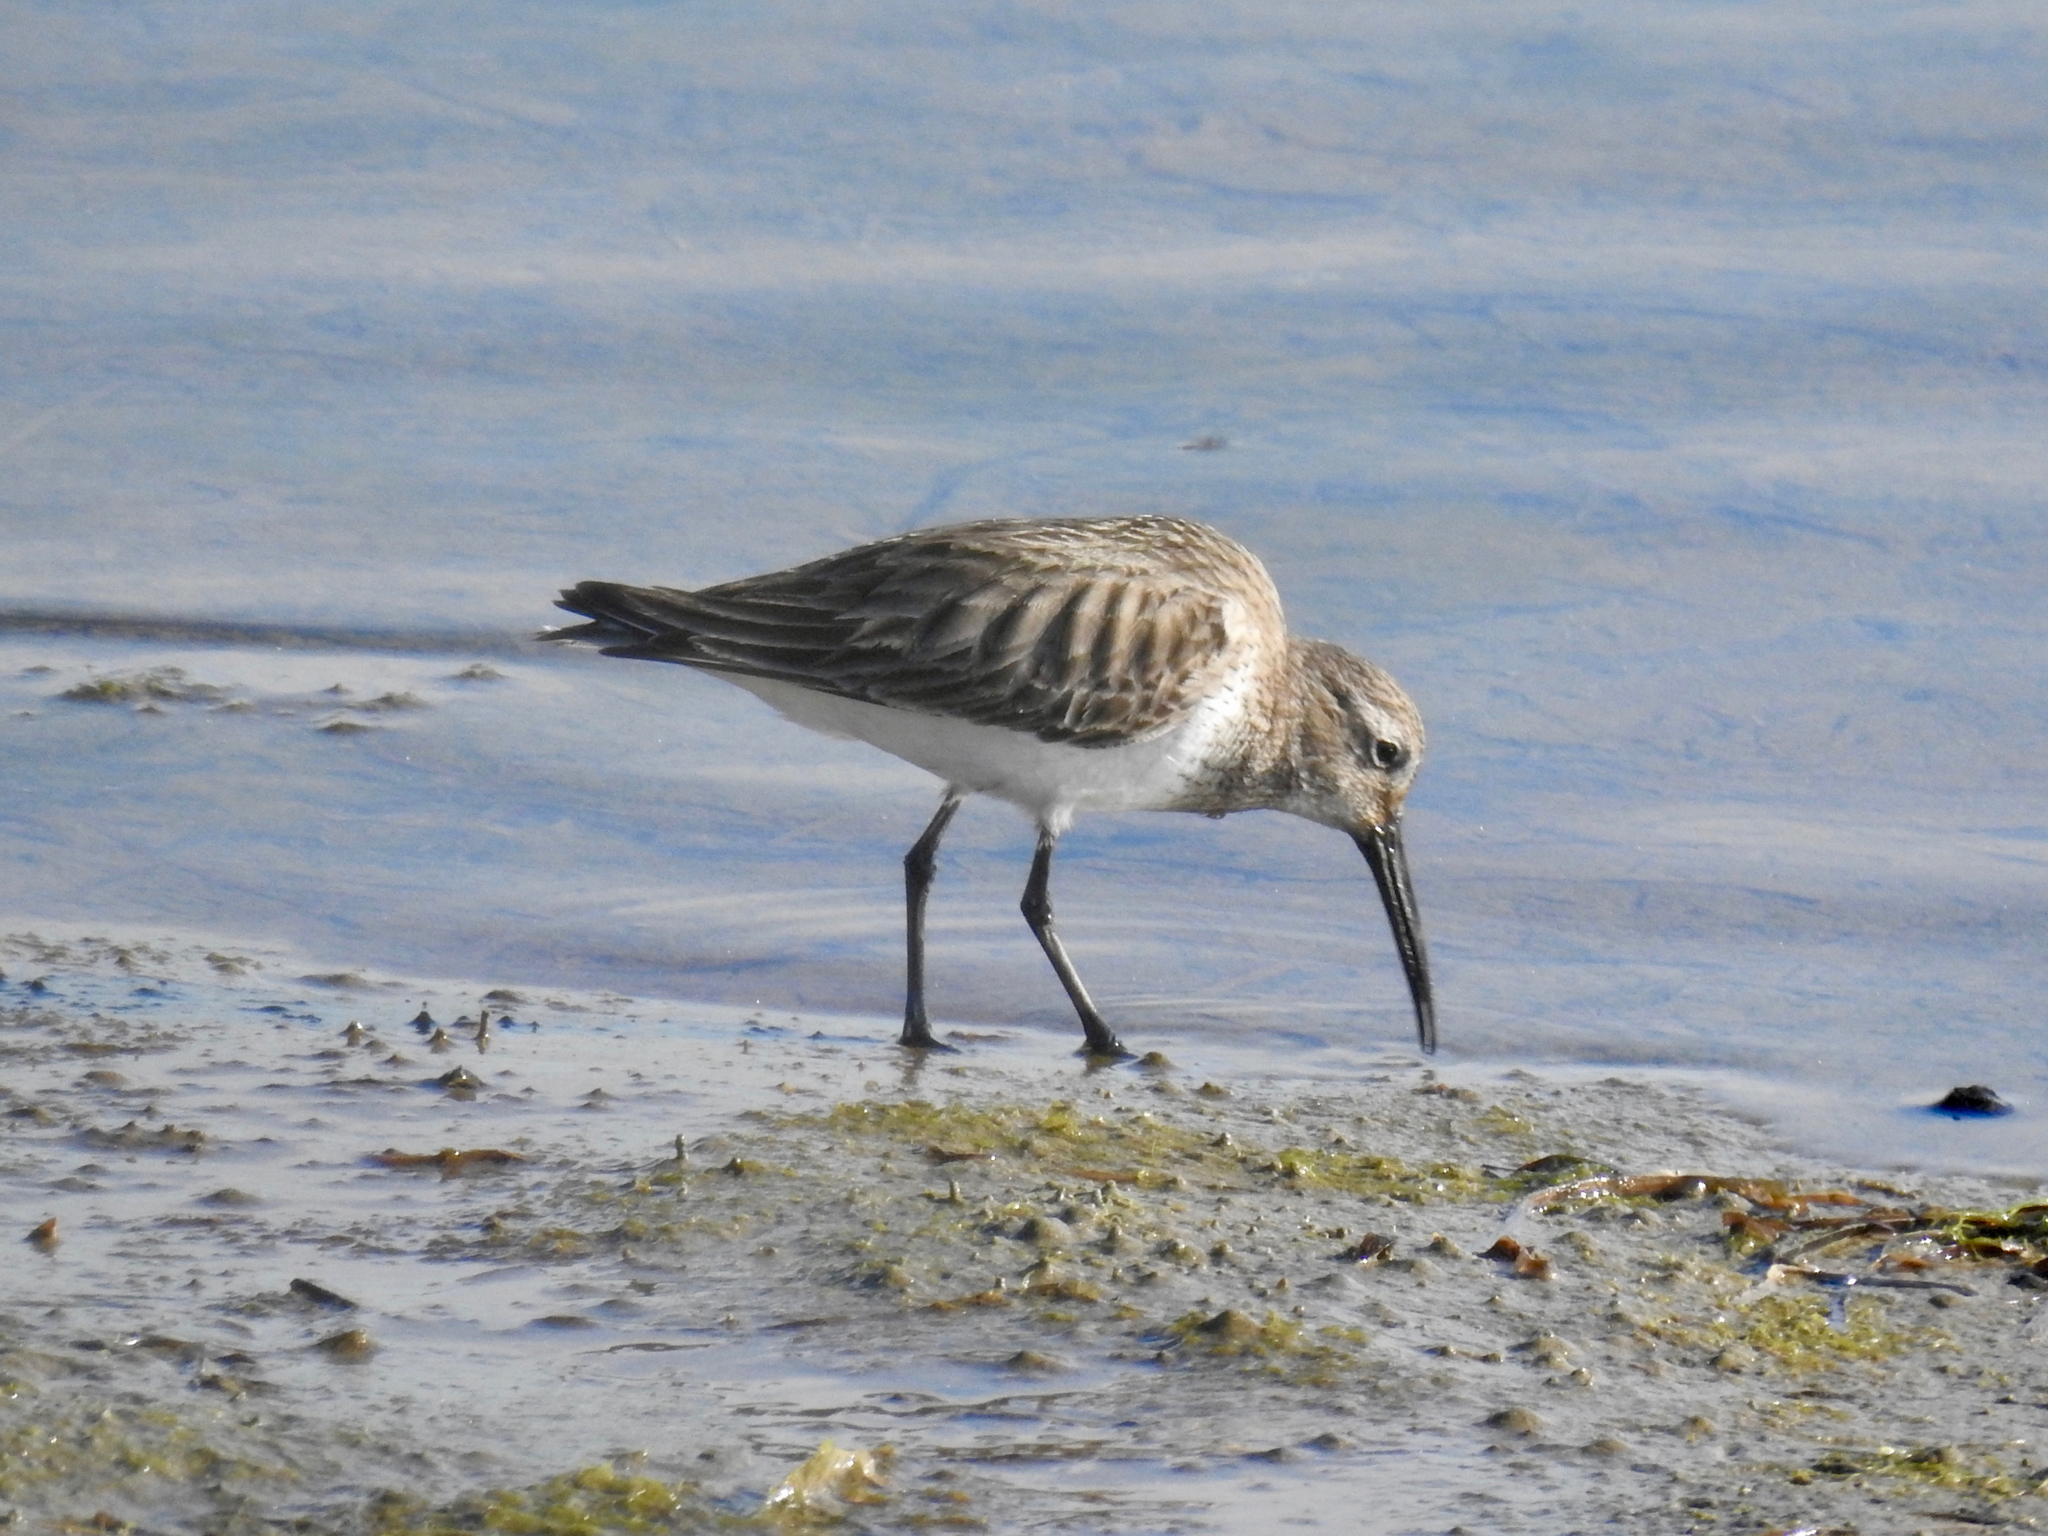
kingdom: Animalia
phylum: Chordata
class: Aves
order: Charadriiformes
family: Scolopacidae
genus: Calidris
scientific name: Calidris alpina
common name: Dunlin
